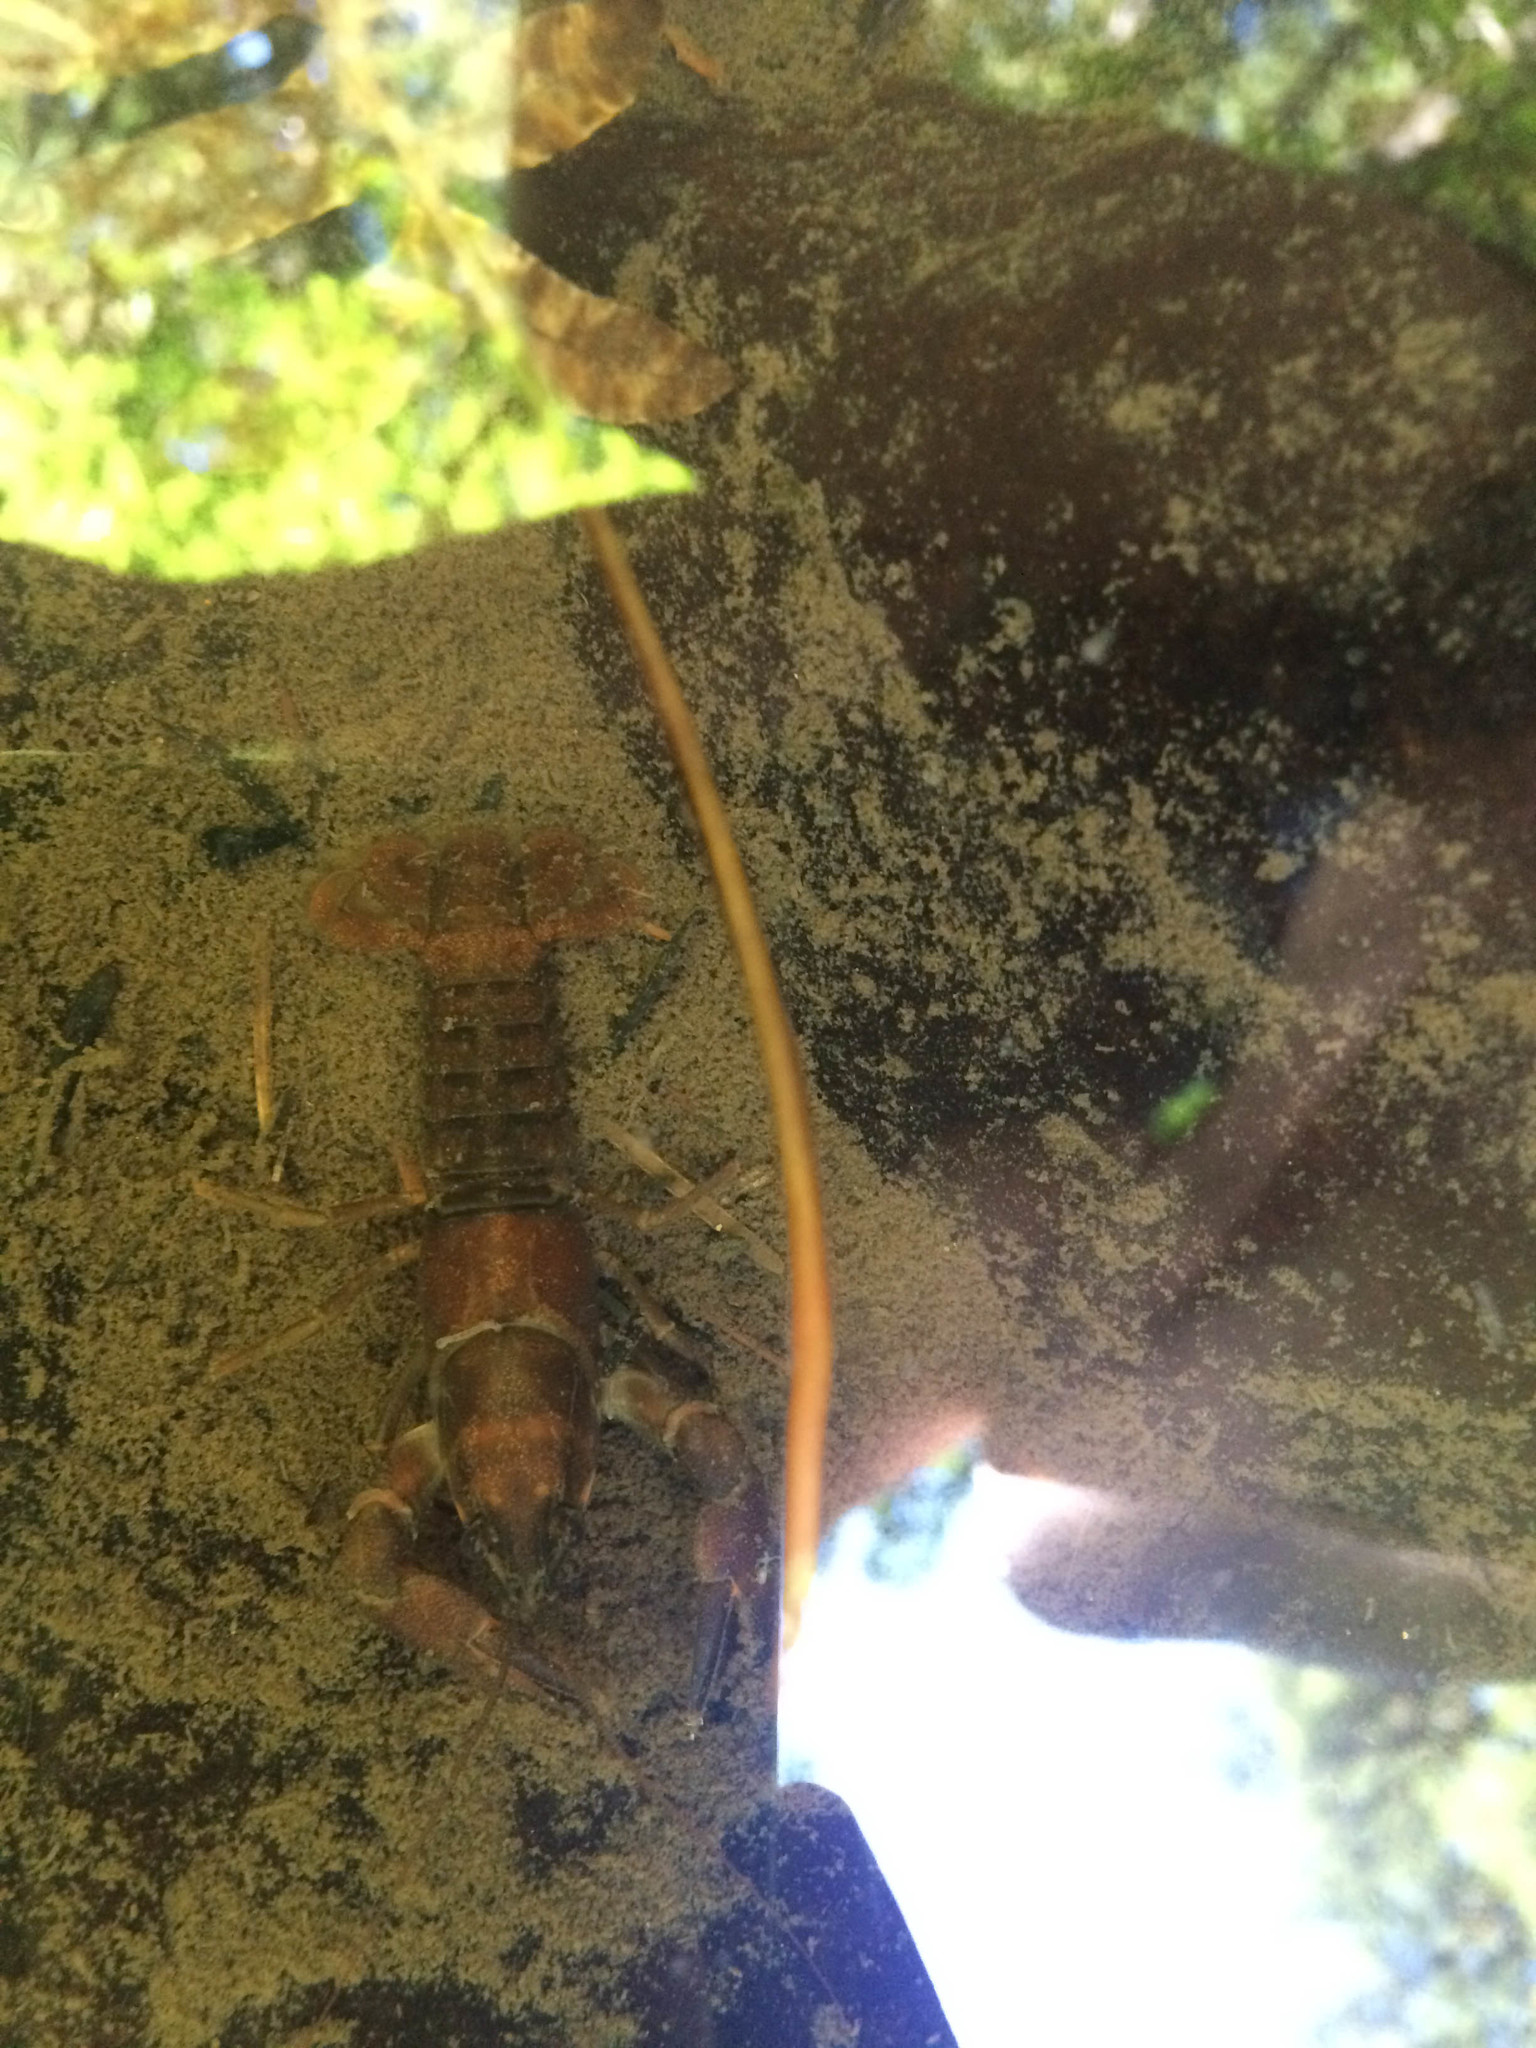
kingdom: Animalia
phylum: Arthropoda
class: Malacostraca
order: Decapoda
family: Astacidae
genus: Pacifastacus
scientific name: Pacifastacus leniusculus
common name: Signal crayfish
